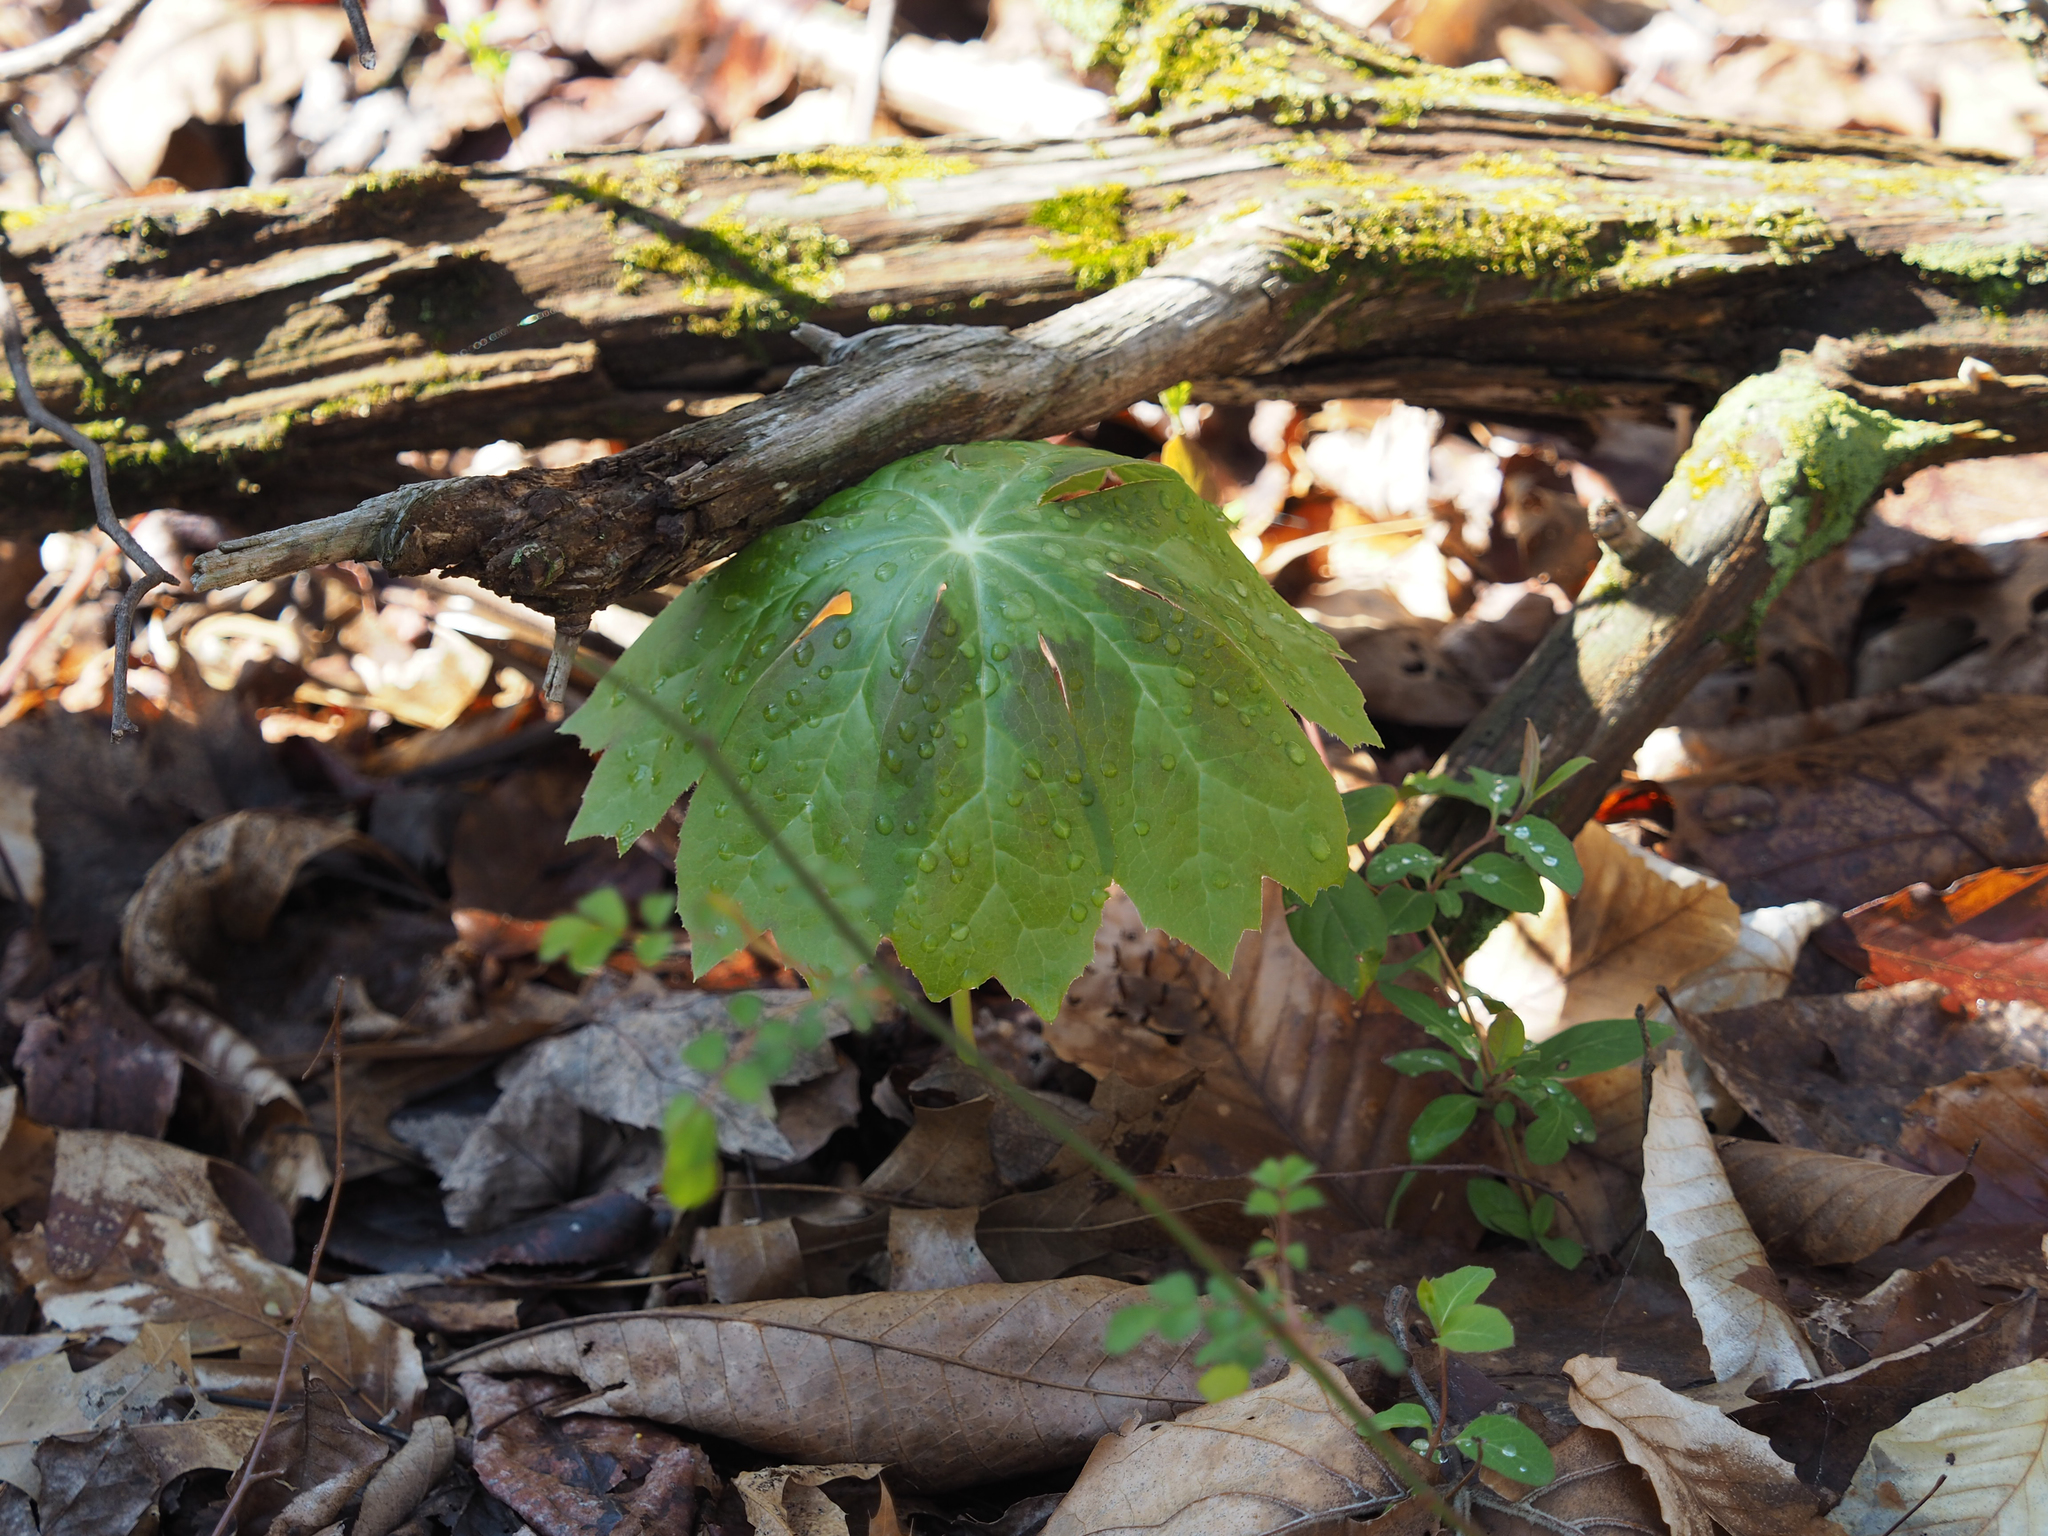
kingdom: Plantae
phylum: Tracheophyta
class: Magnoliopsida
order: Ranunculales
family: Berberidaceae
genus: Podophyllum
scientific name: Podophyllum peltatum
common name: Wild mandrake
